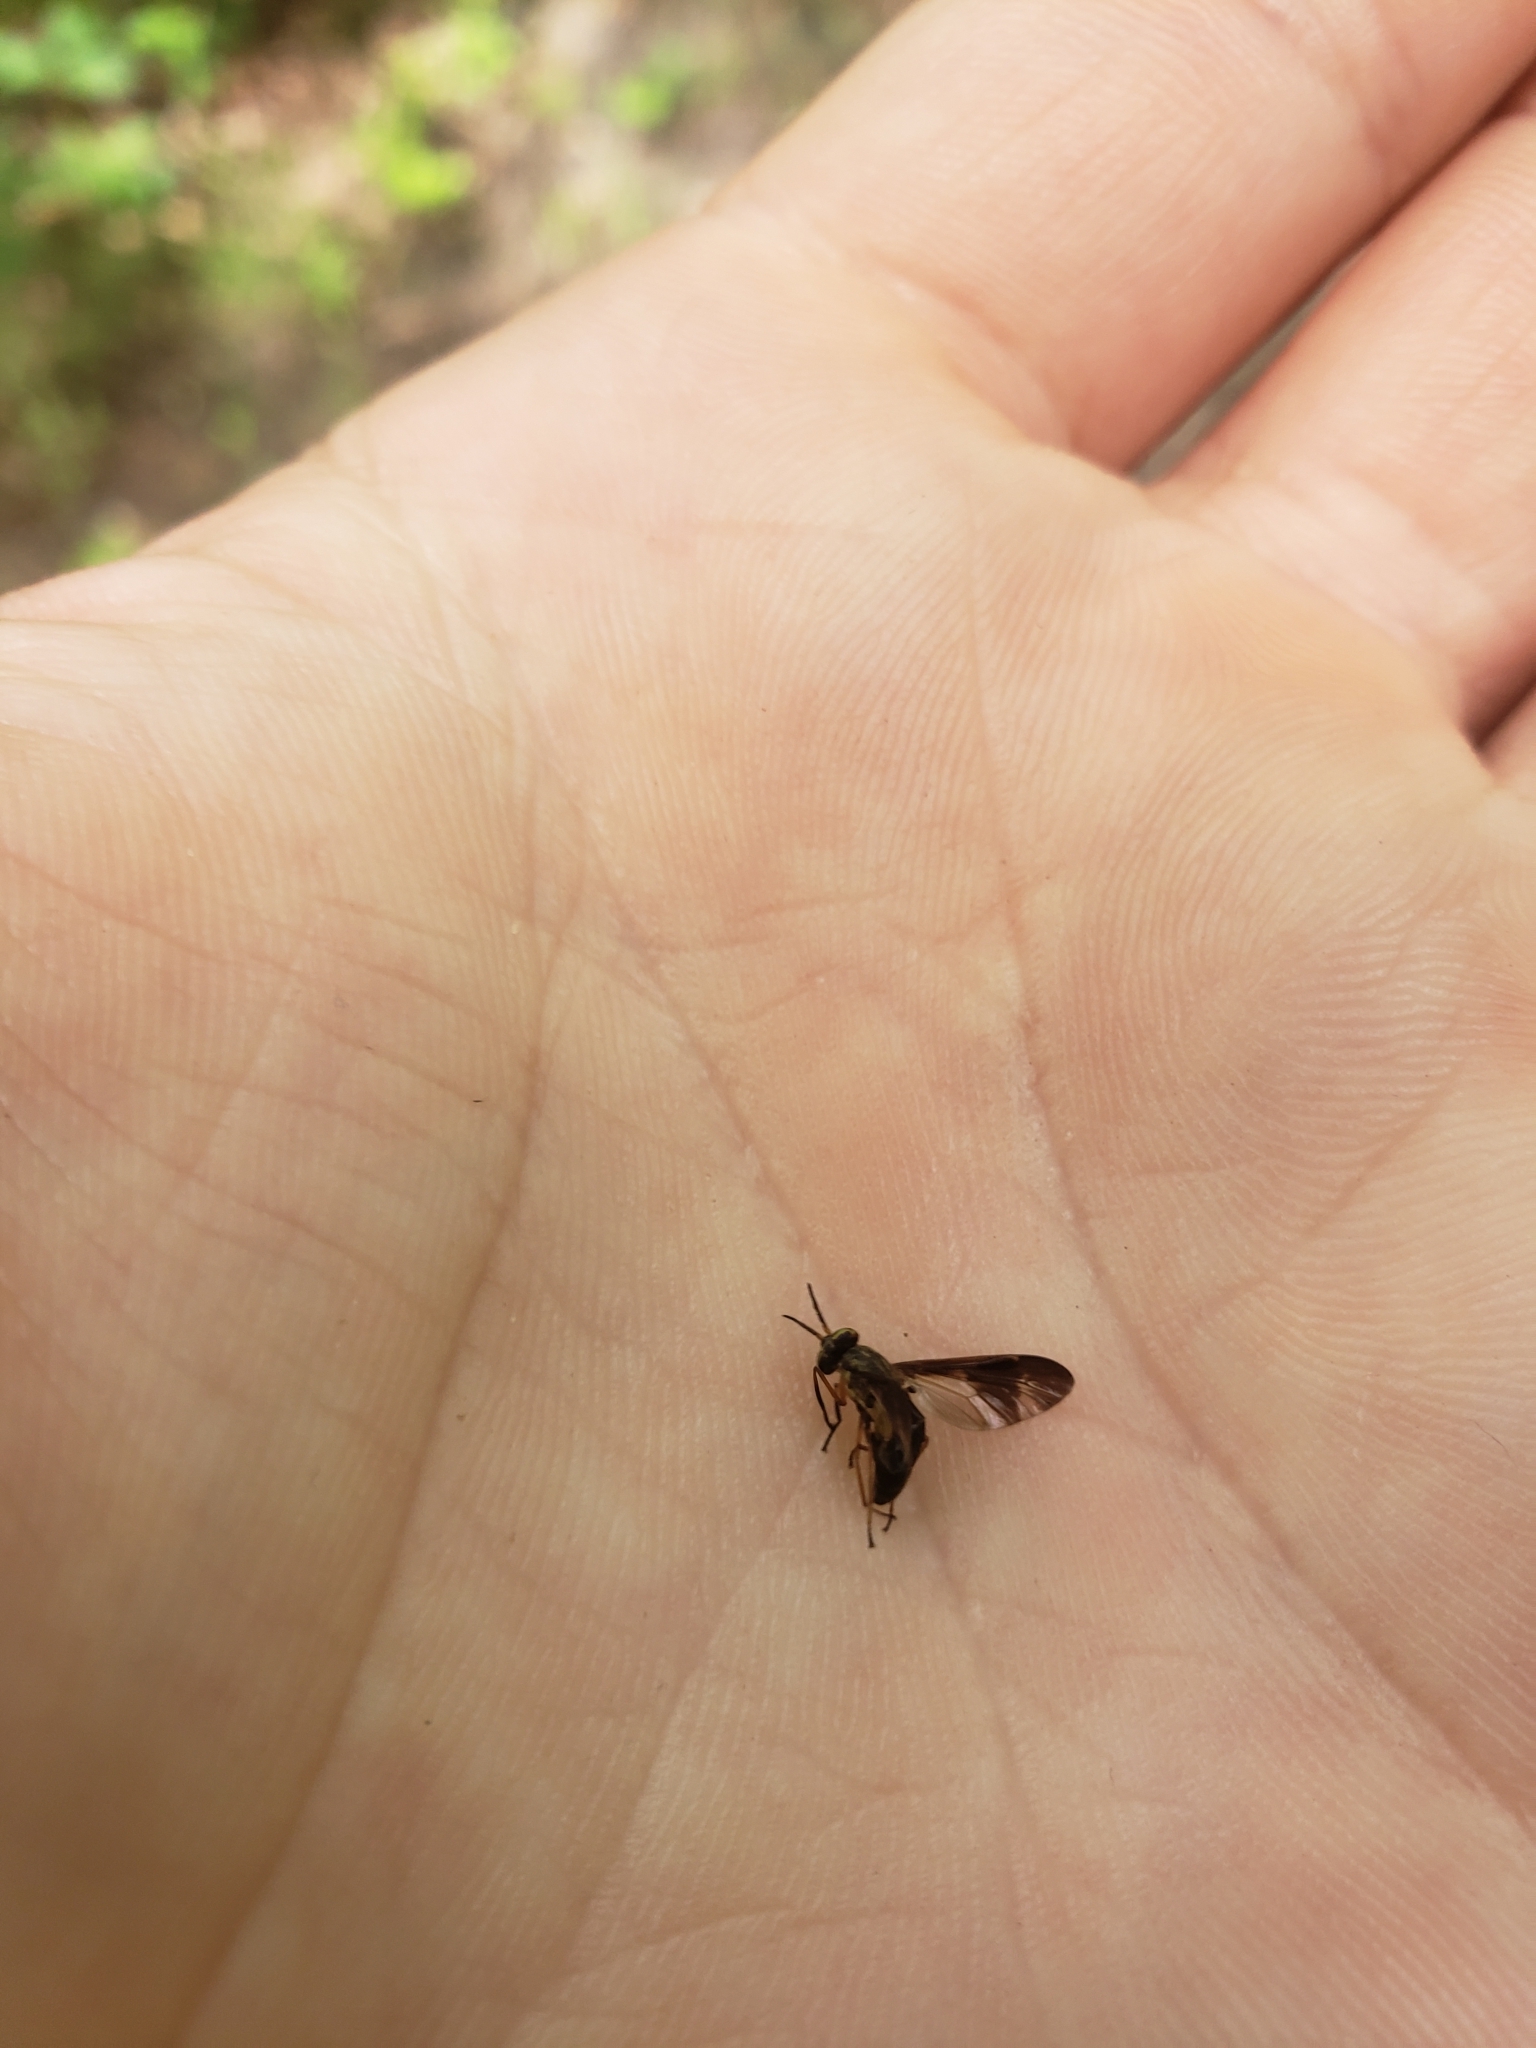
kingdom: Animalia
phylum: Arthropoda
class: Insecta
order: Diptera
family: Tabanidae
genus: Chrysops
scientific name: Chrysops macquarti
